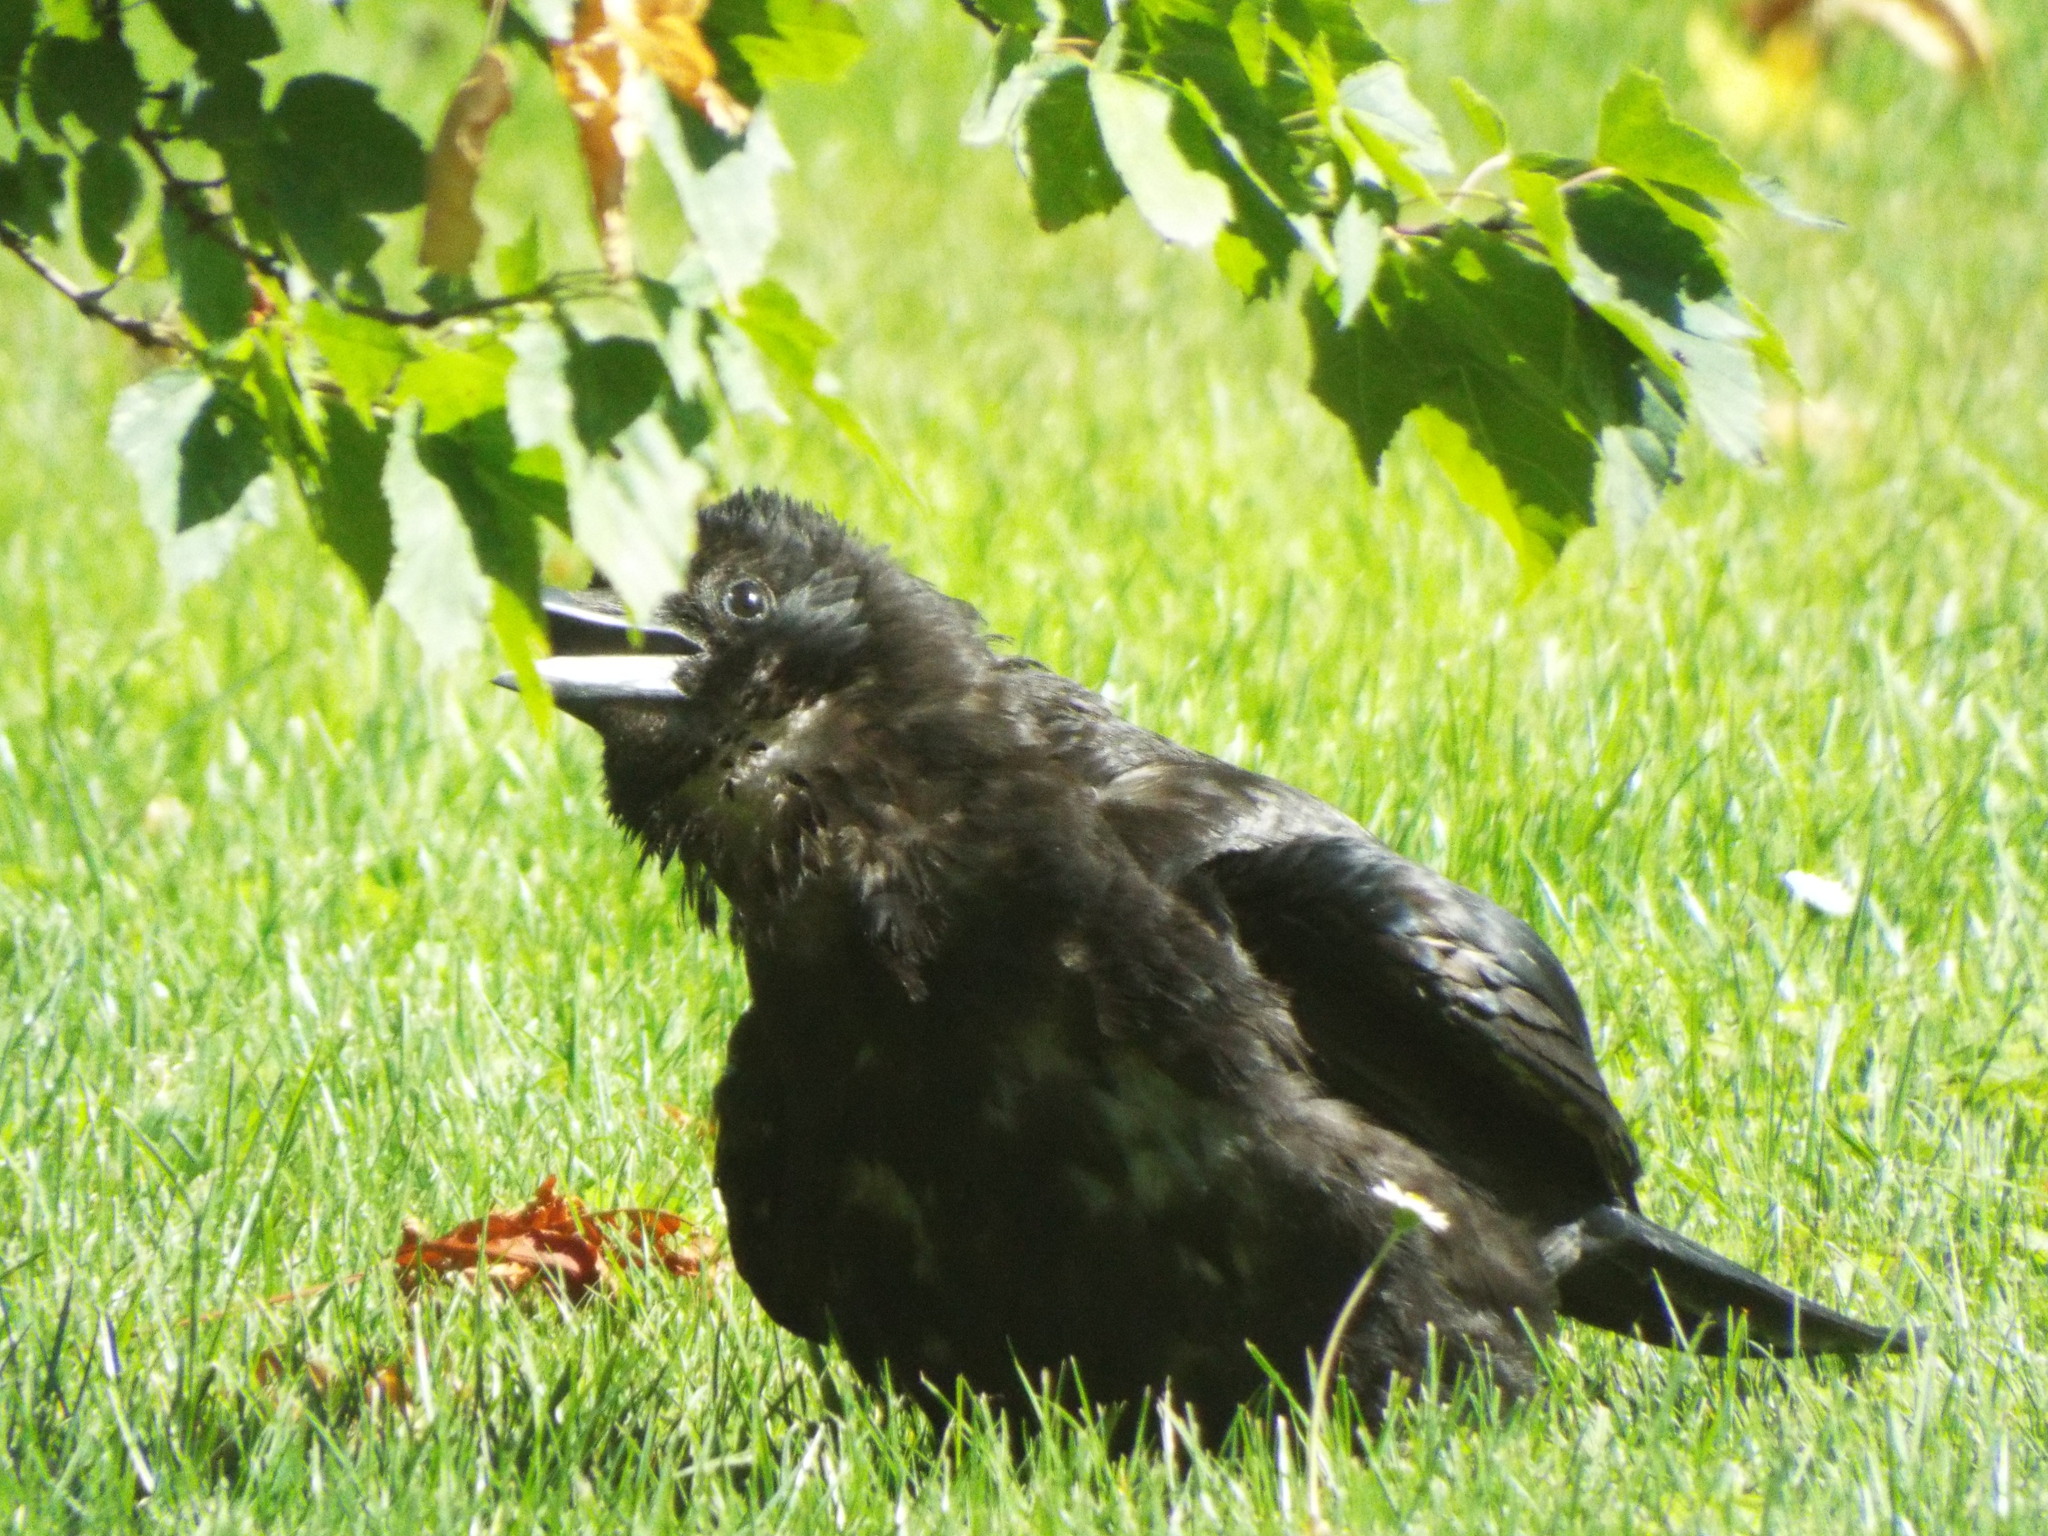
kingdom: Animalia
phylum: Chordata
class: Aves
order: Passeriformes
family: Corvidae
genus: Corvus
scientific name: Corvus corone
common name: Carrion crow
